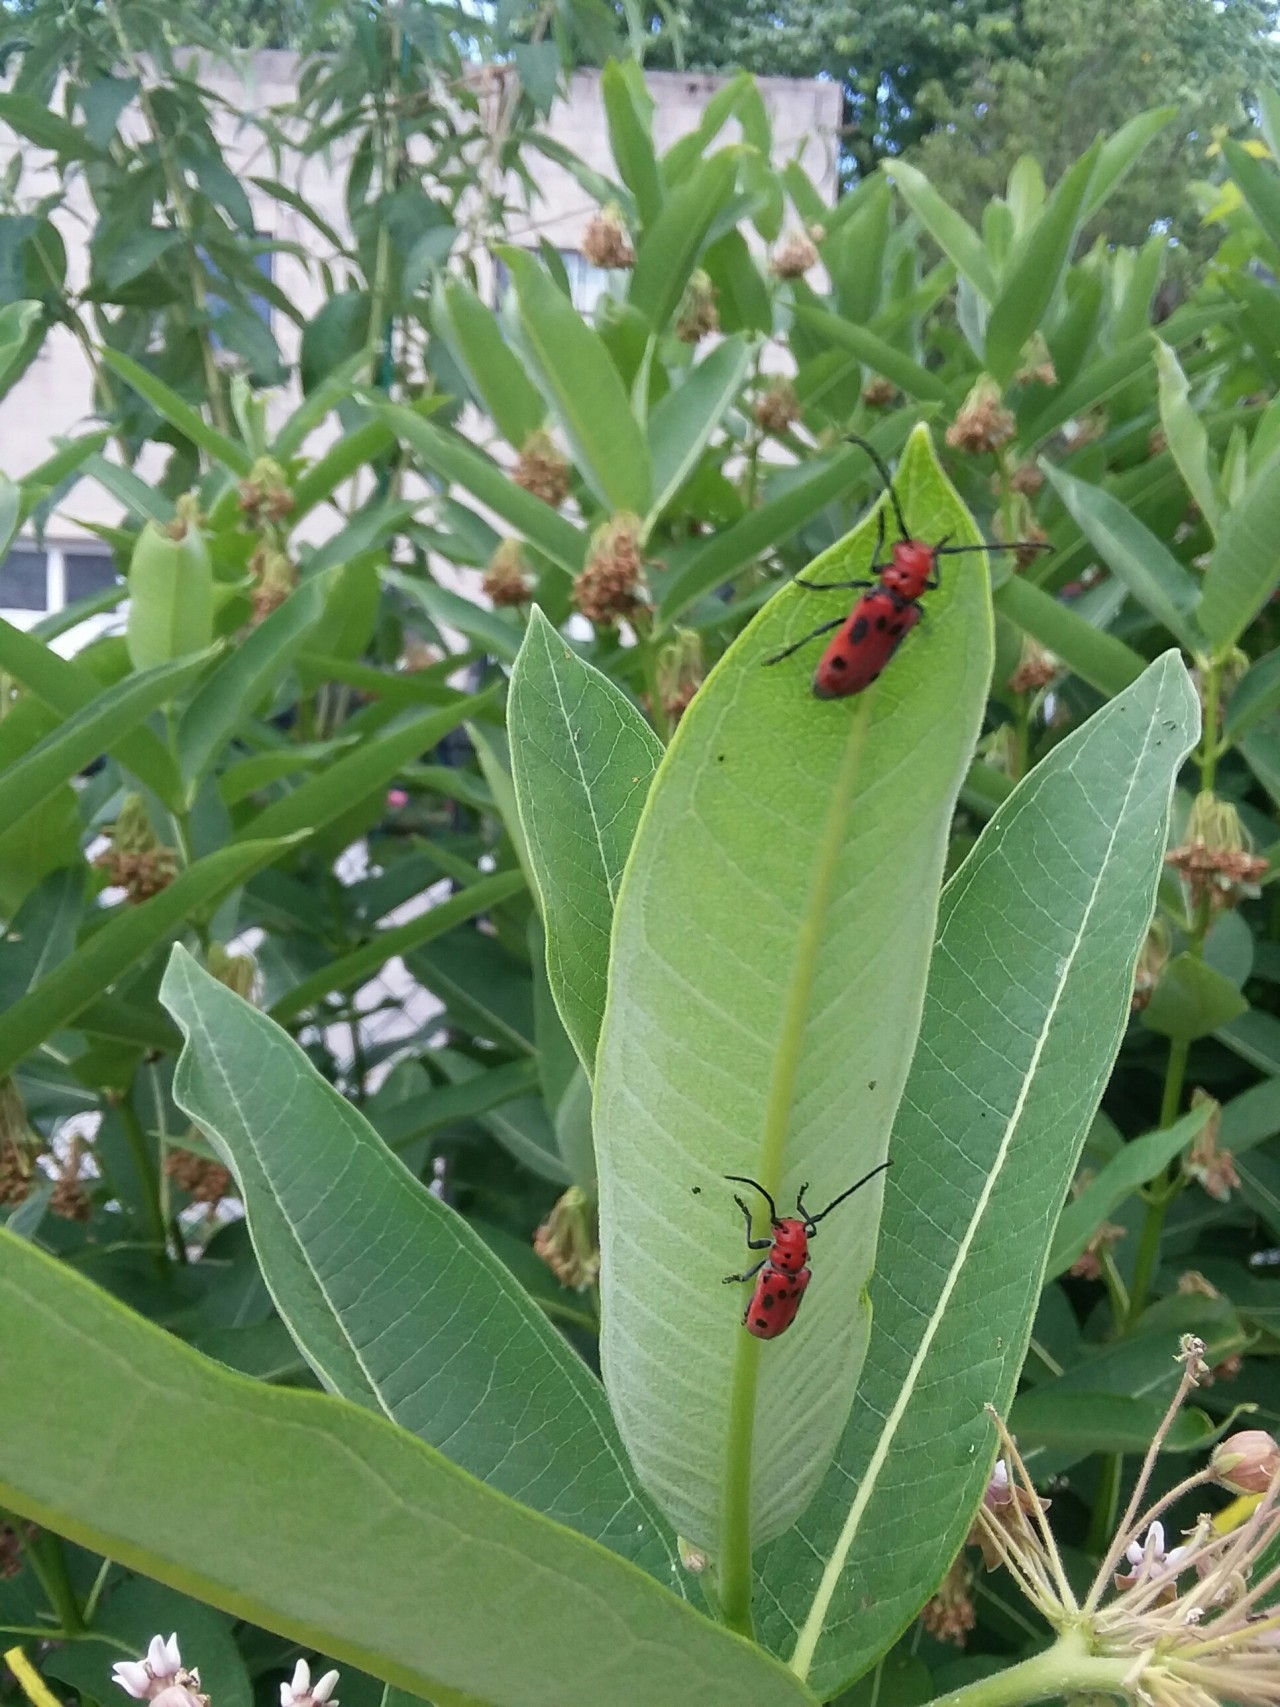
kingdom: Animalia
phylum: Arthropoda
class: Insecta
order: Coleoptera
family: Cerambycidae
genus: Tetraopes
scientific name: Tetraopes tetrophthalmus
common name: Red milkweed beetle
